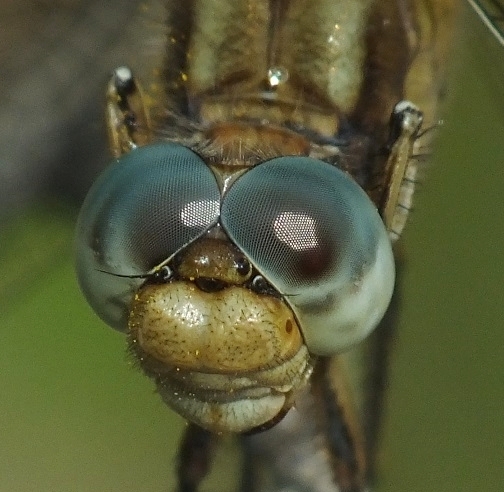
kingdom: Animalia
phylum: Arthropoda
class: Insecta
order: Odonata
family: Libellulidae
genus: Orthetrum
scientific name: Orthetrum coerulescens
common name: Keeled skimmer
